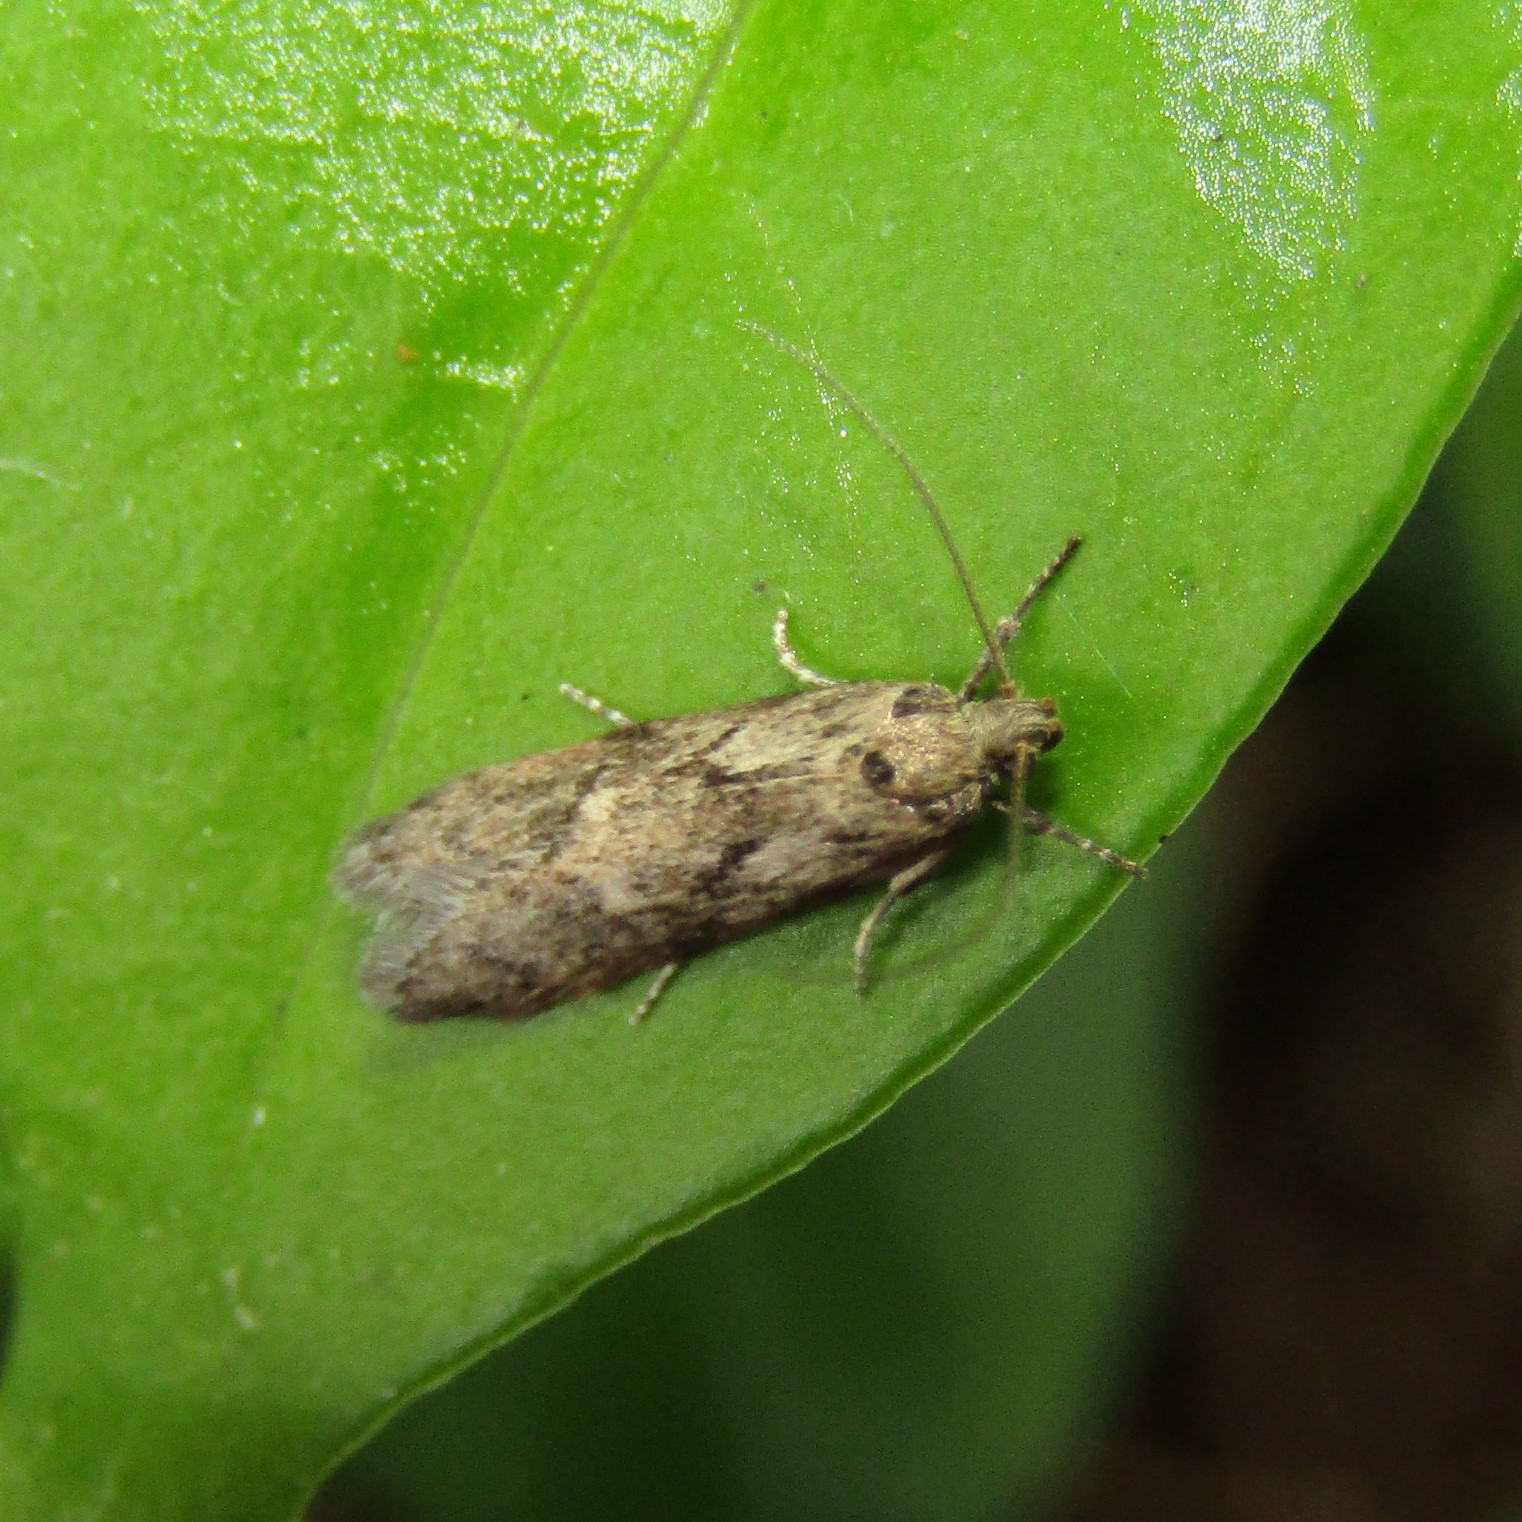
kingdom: Animalia
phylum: Arthropoda
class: Insecta
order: Lepidoptera
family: Oecophoridae
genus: Chersadaula
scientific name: Chersadaula ochrogastra
